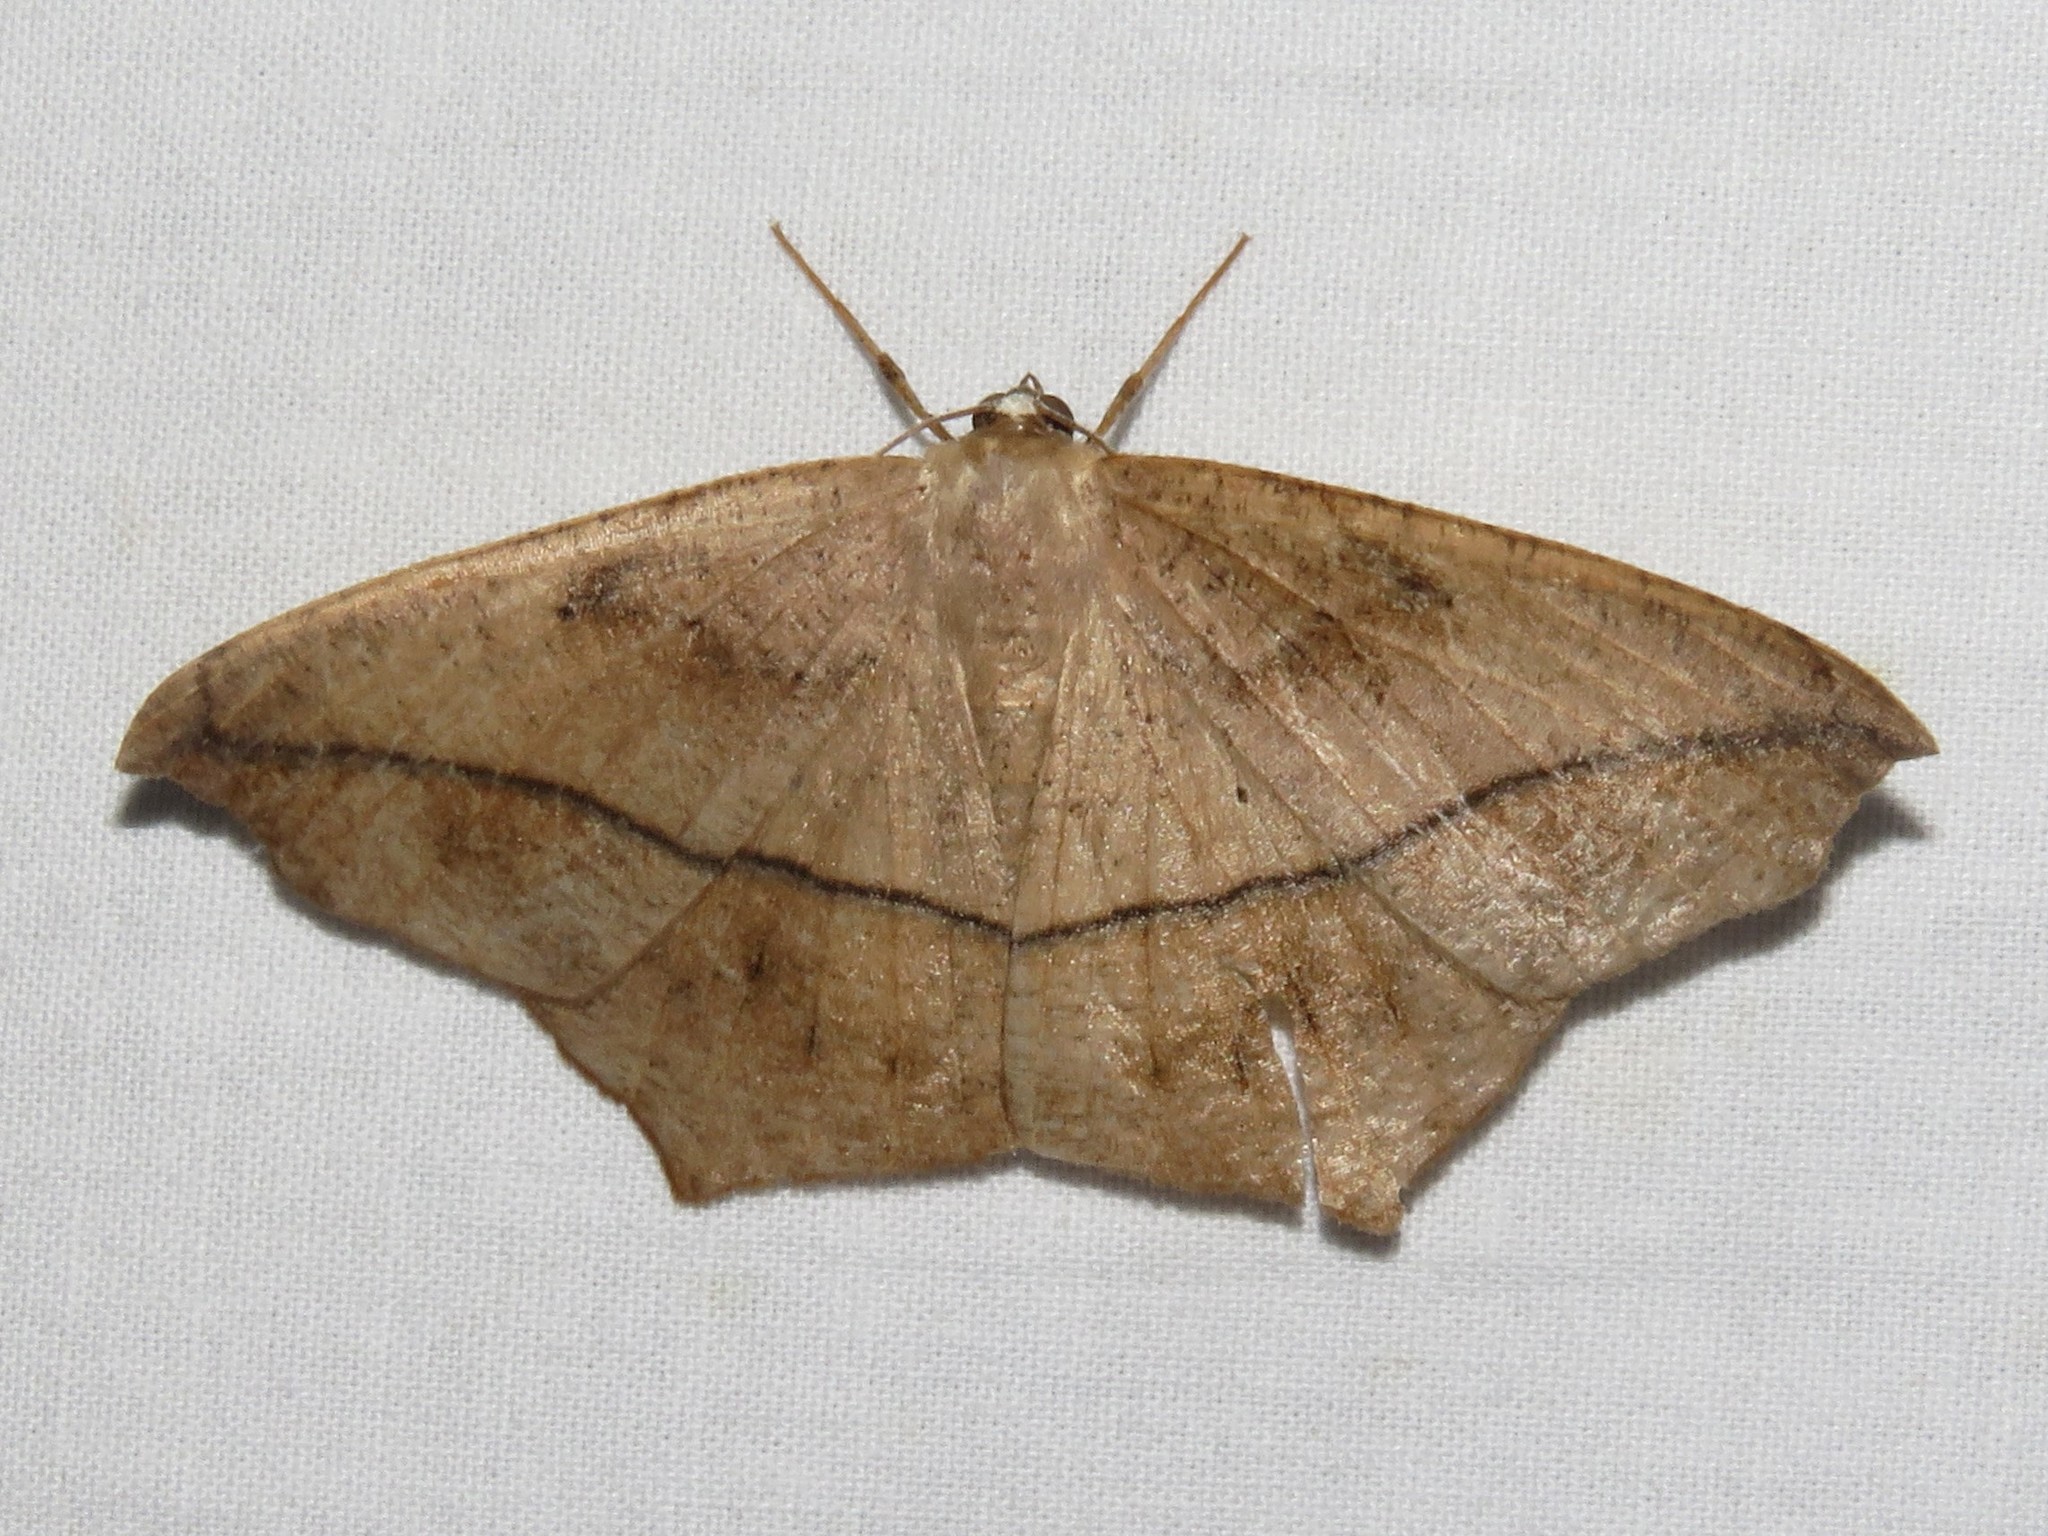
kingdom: Animalia
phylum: Arthropoda
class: Insecta
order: Lepidoptera
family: Geometridae
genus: Prochoerodes
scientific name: Prochoerodes lineola
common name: Large maple spanworm
